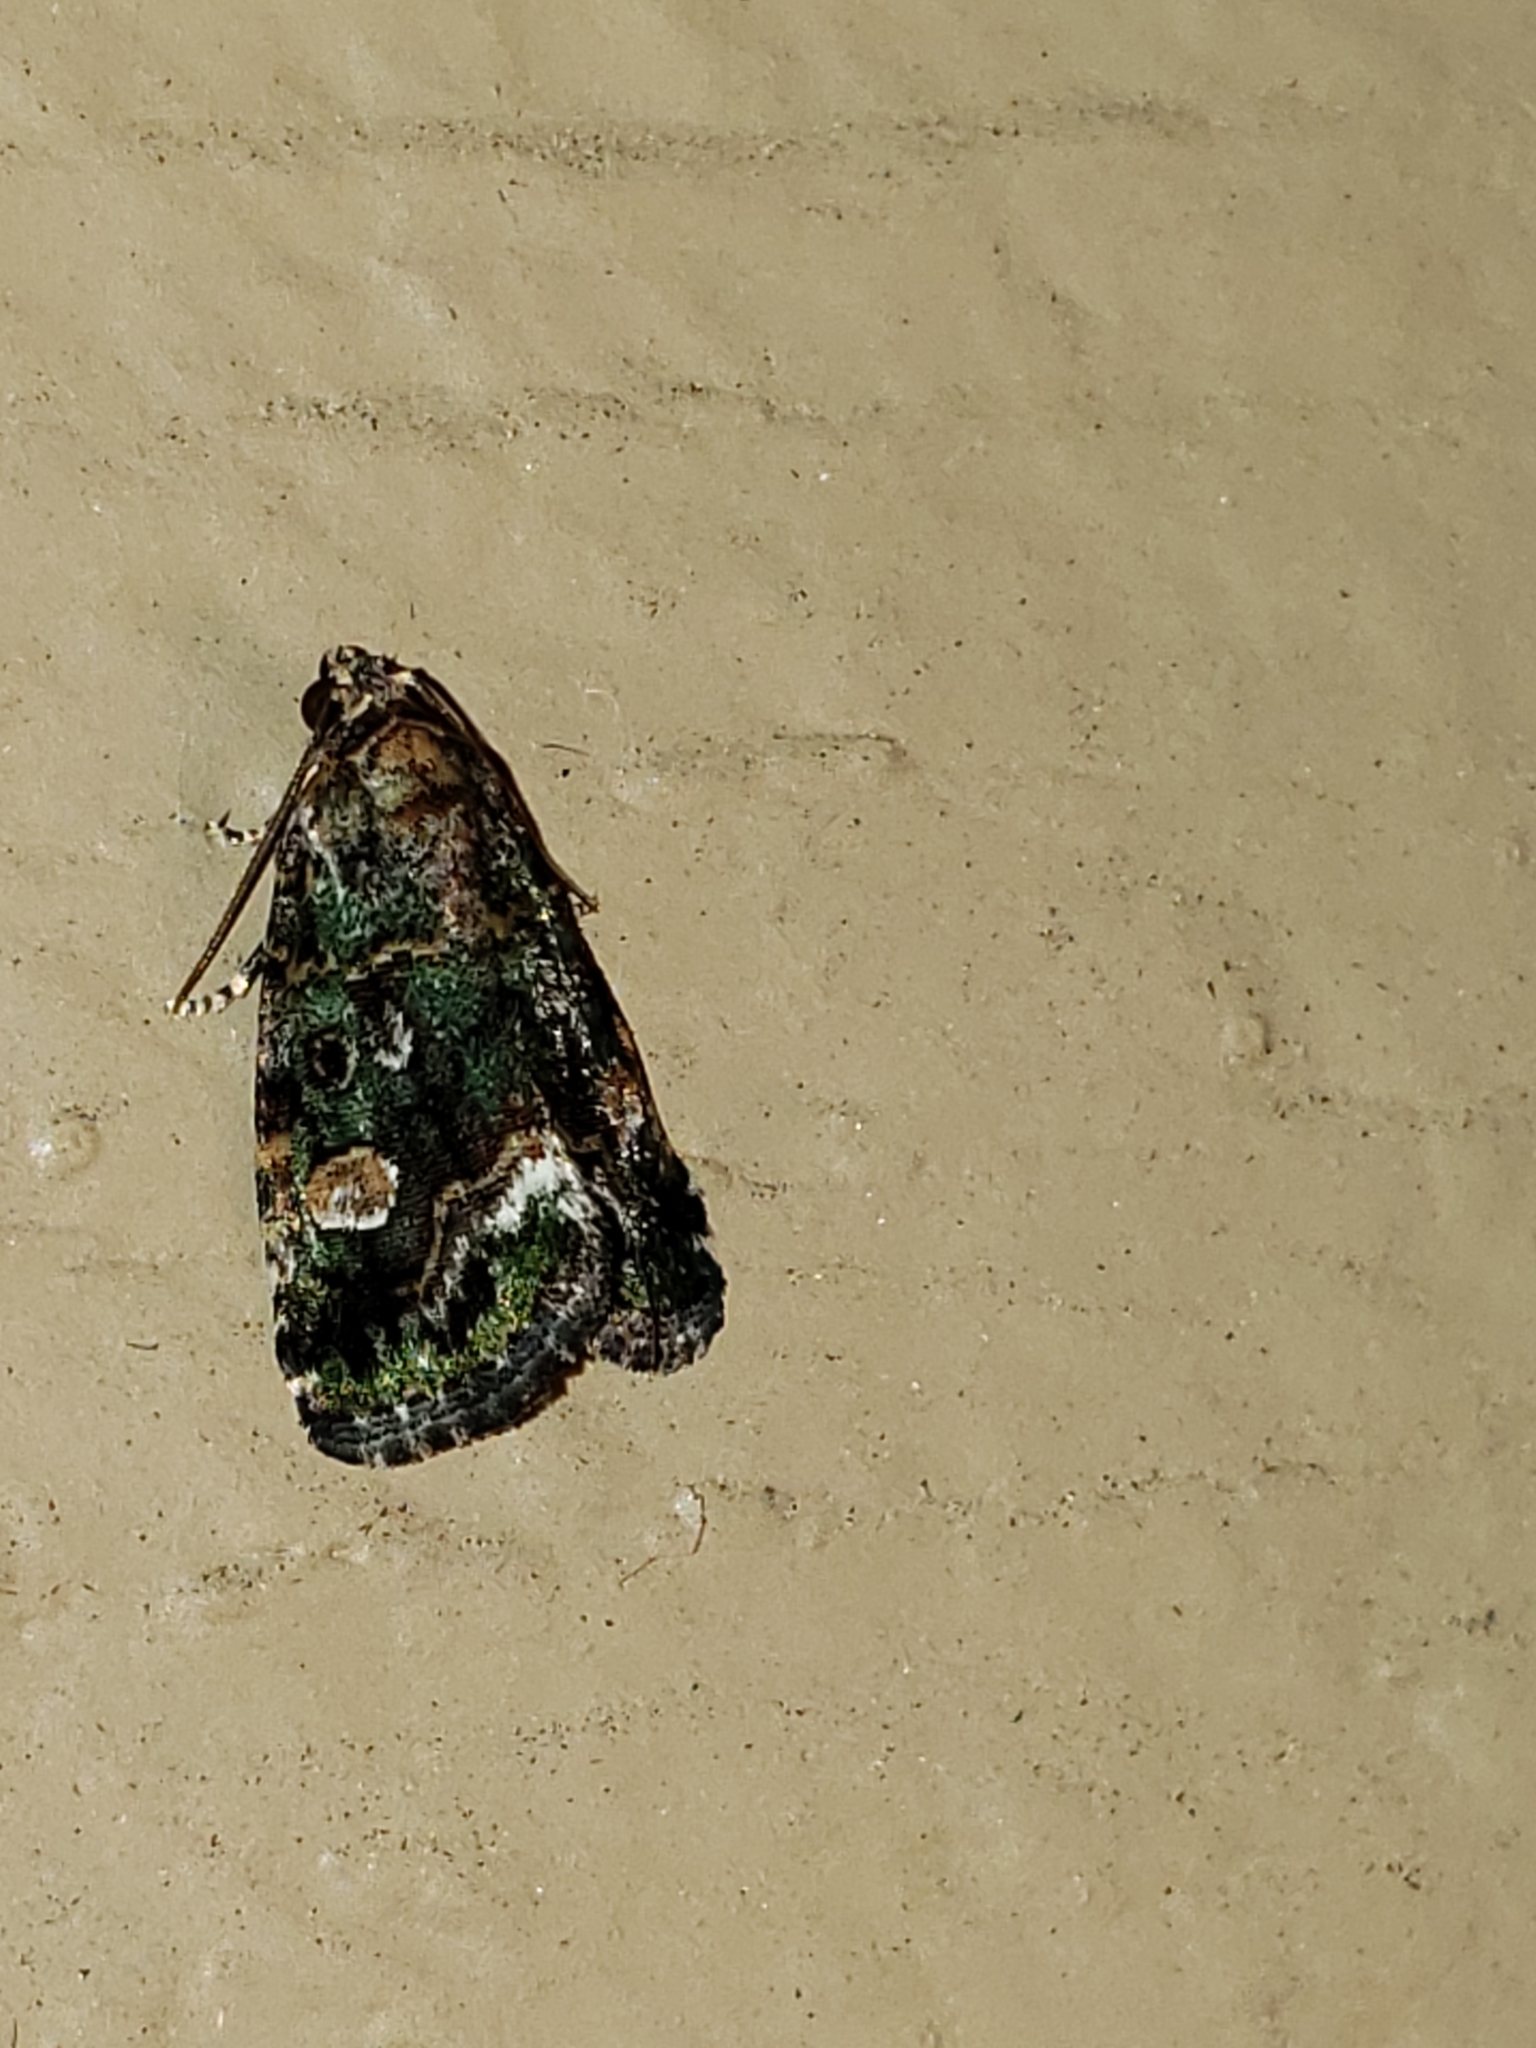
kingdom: Animalia
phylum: Arthropoda
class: Insecta
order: Lepidoptera
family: Noctuidae
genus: Lithacodia
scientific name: Lithacodia musta
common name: Small mossy glyph
